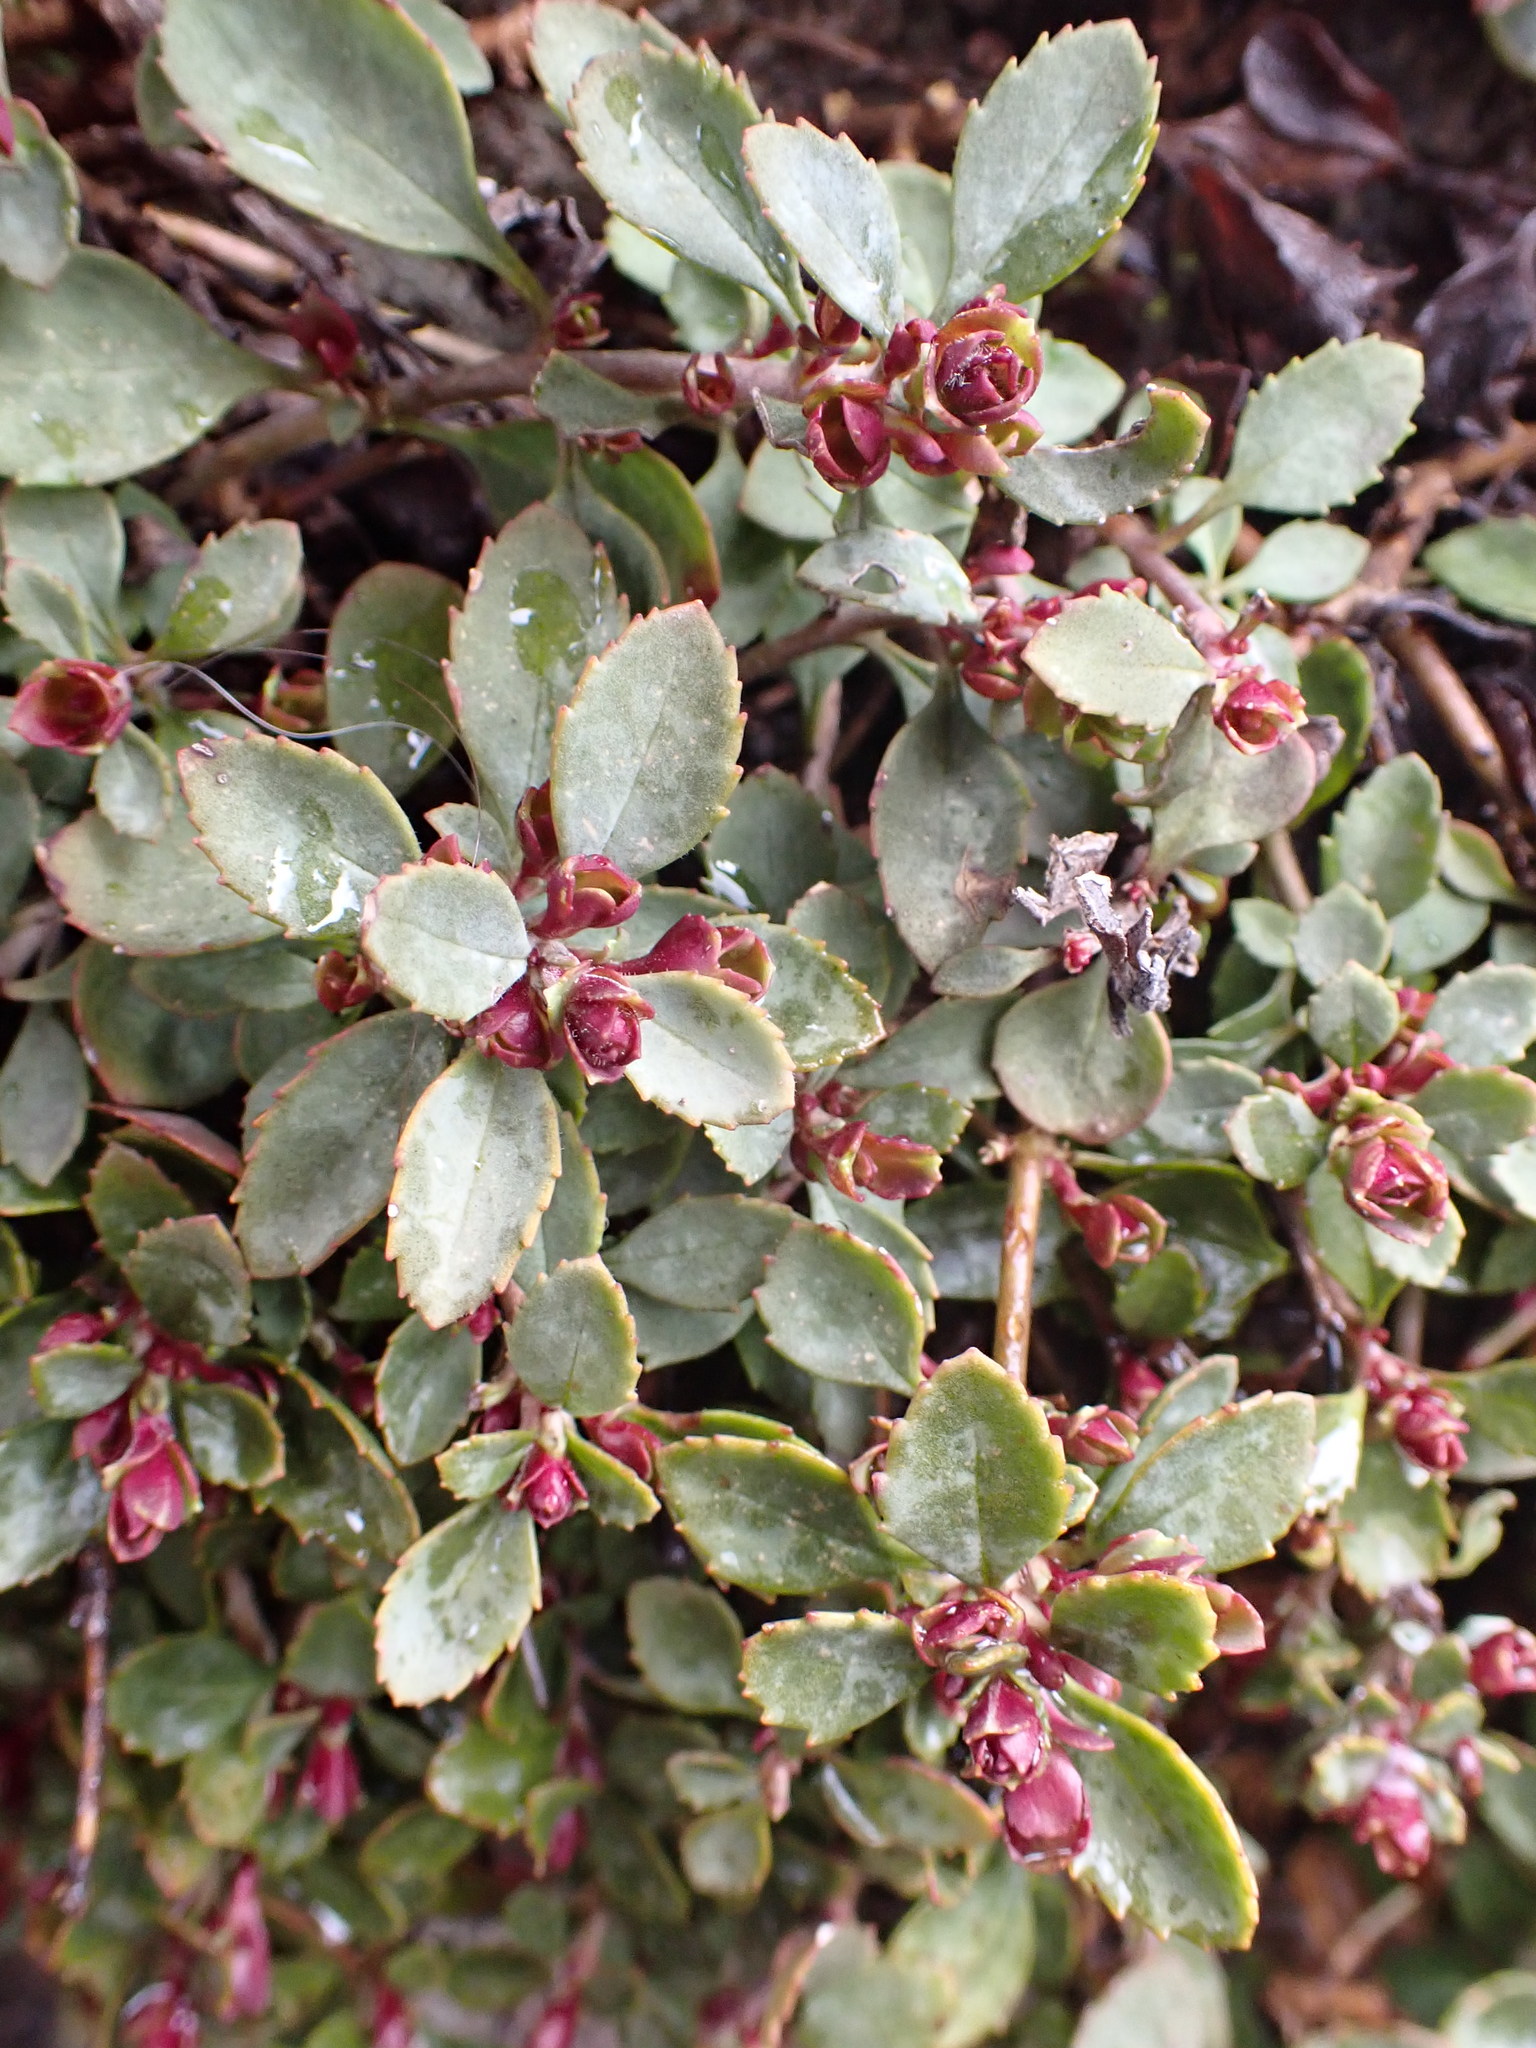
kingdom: Plantae
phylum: Tracheophyta
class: Magnoliopsida
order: Lamiales
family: Plantaginaceae
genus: Penstemon
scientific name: Penstemon rupicola
